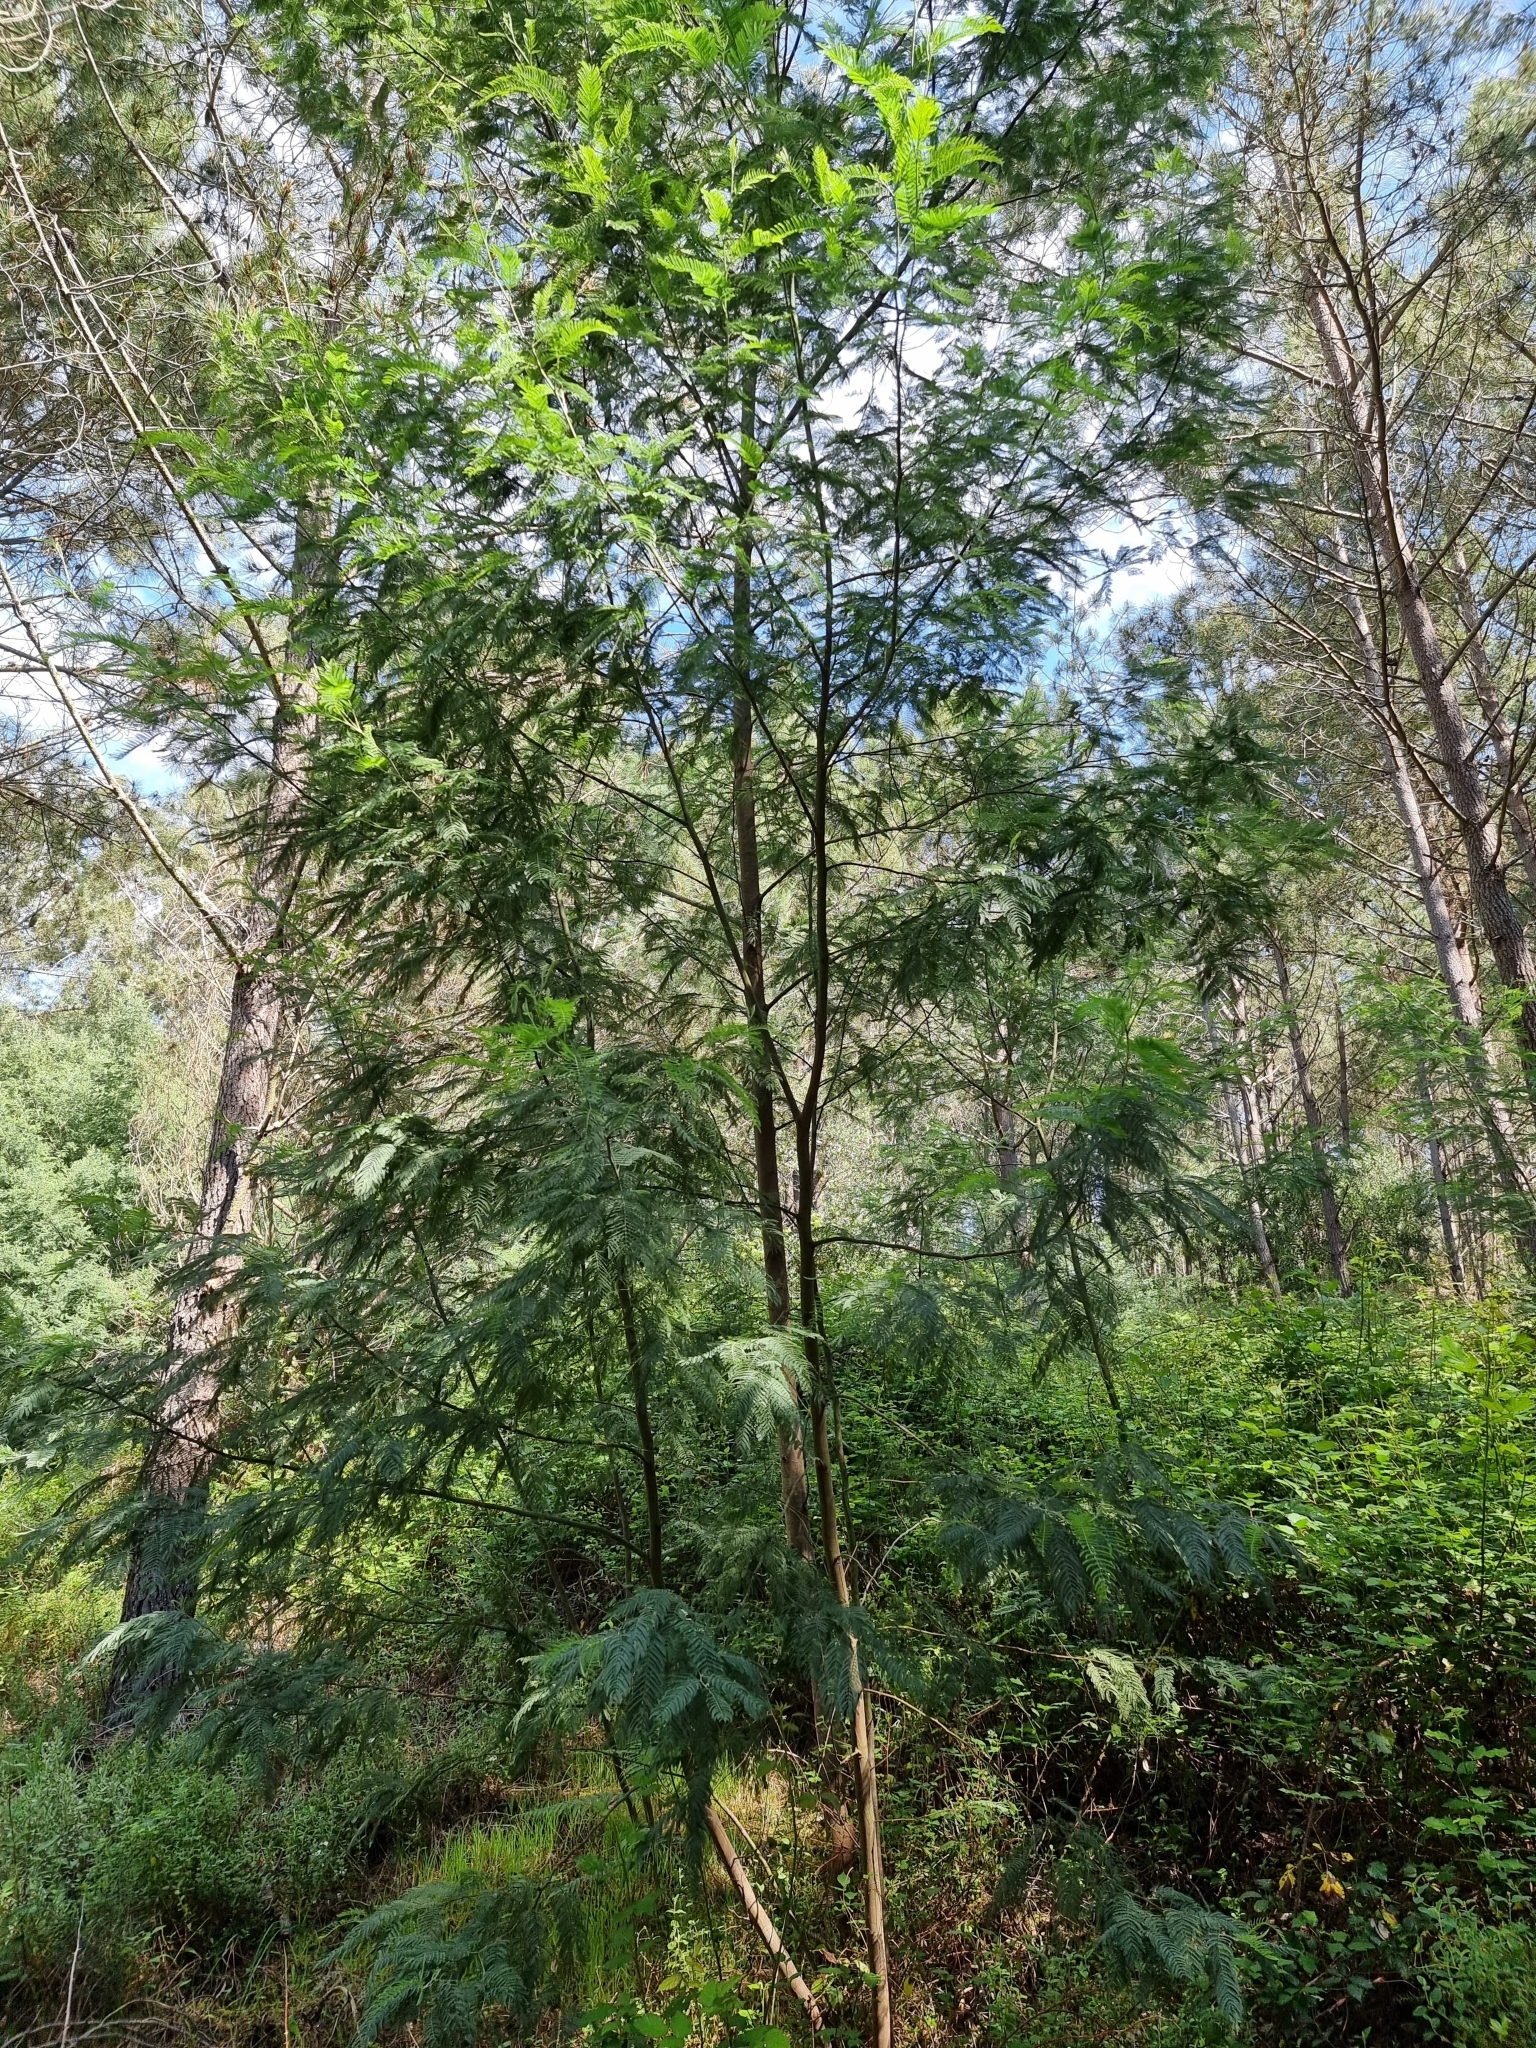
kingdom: Plantae
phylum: Tracheophyta
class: Magnoliopsida
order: Fabales
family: Fabaceae
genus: Acacia
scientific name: Acacia dealbata
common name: Silver wattle
